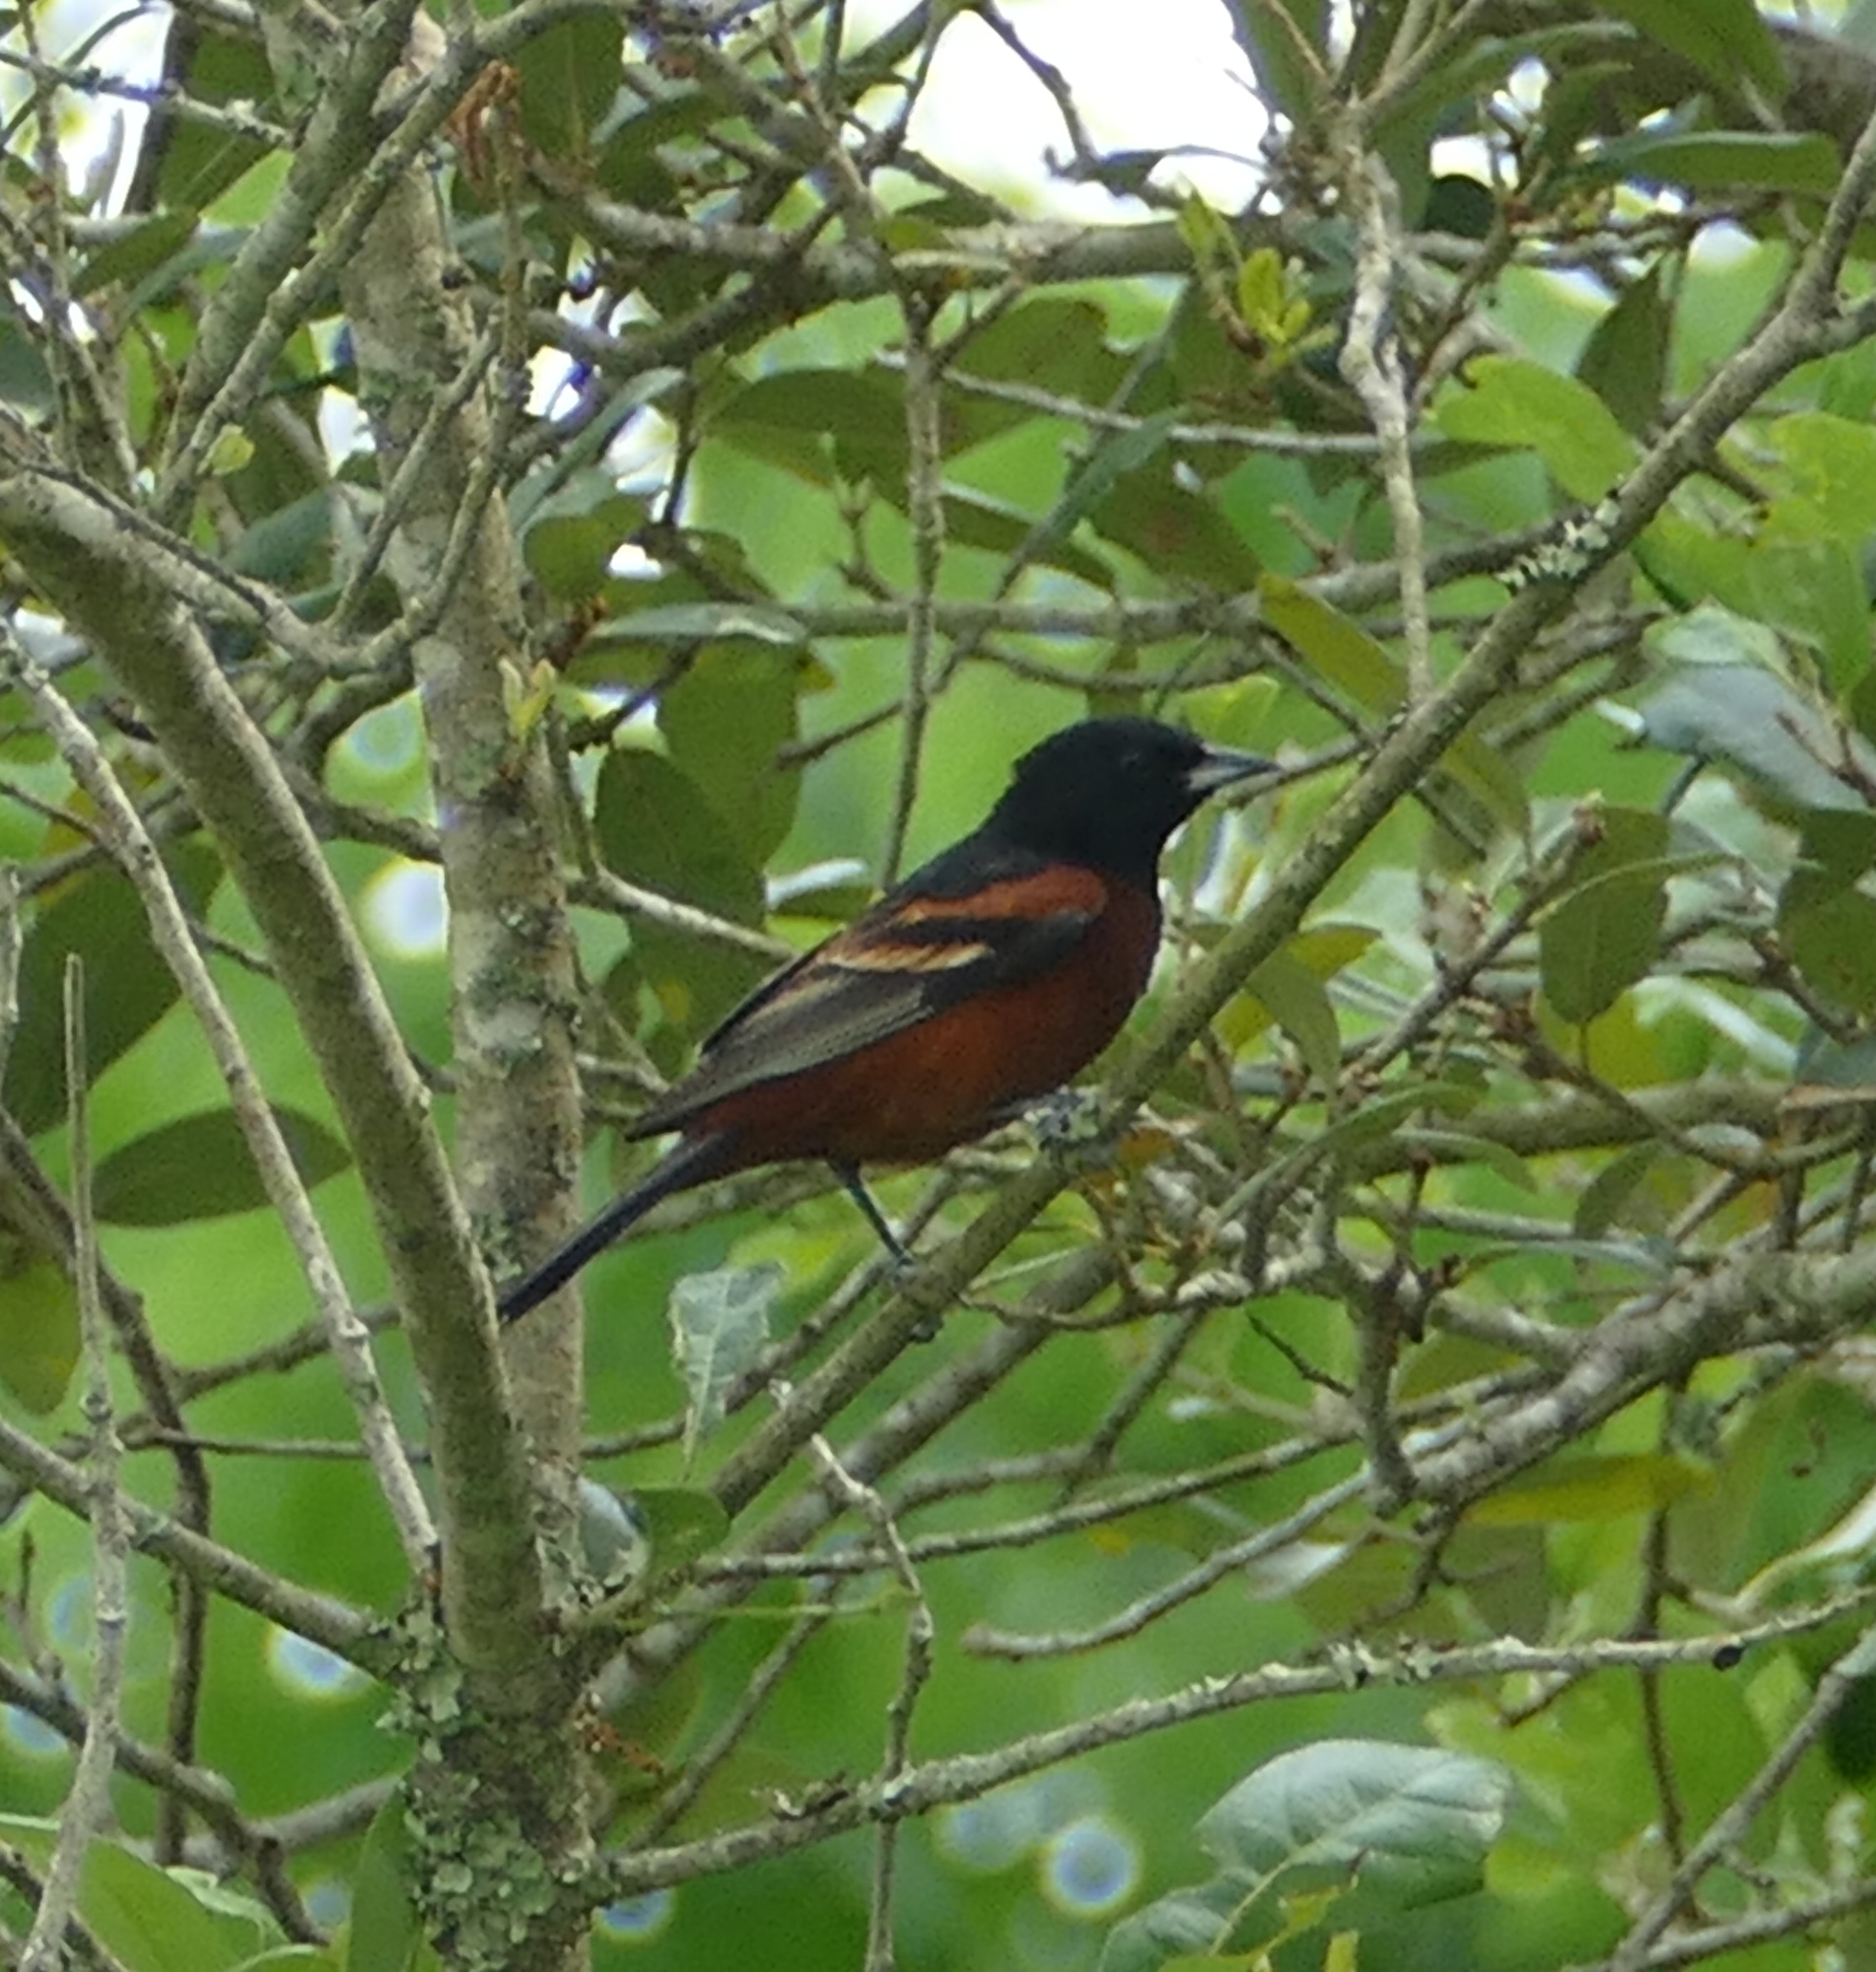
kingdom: Animalia
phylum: Chordata
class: Aves
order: Passeriformes
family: Icteridae
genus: Icterus
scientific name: Icterus spurius
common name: Orchard oriole
